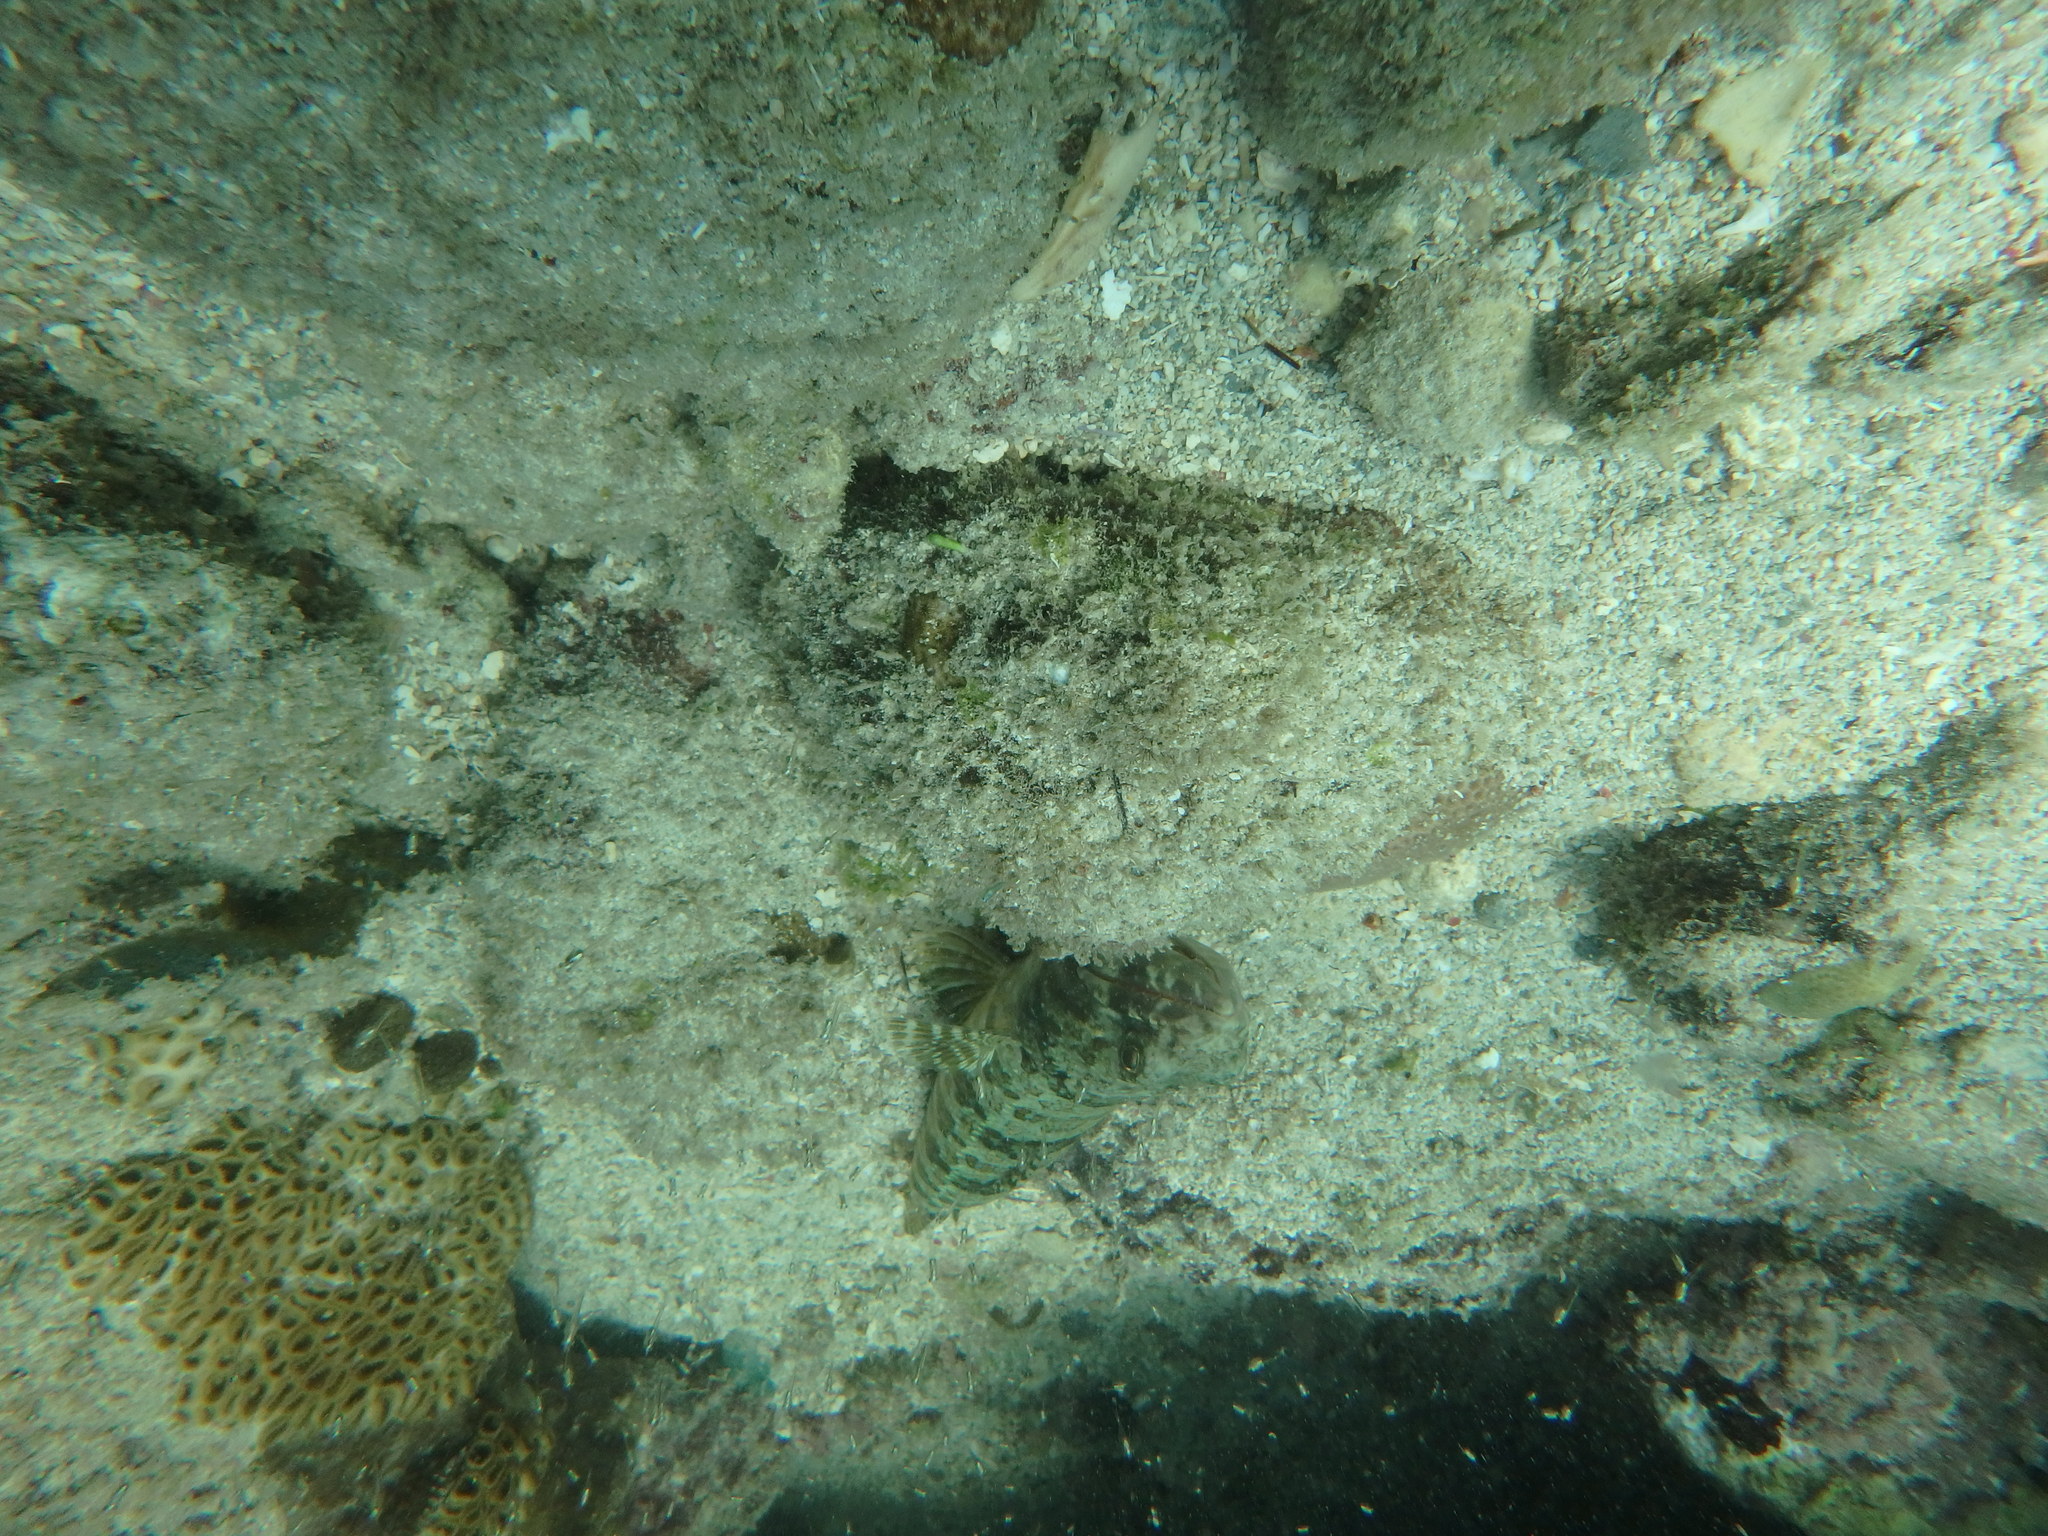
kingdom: Animalia
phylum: Chordata
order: Aulopiformes
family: Synodontidae
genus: Synodus
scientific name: Synodus intermedius
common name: Sand diver
